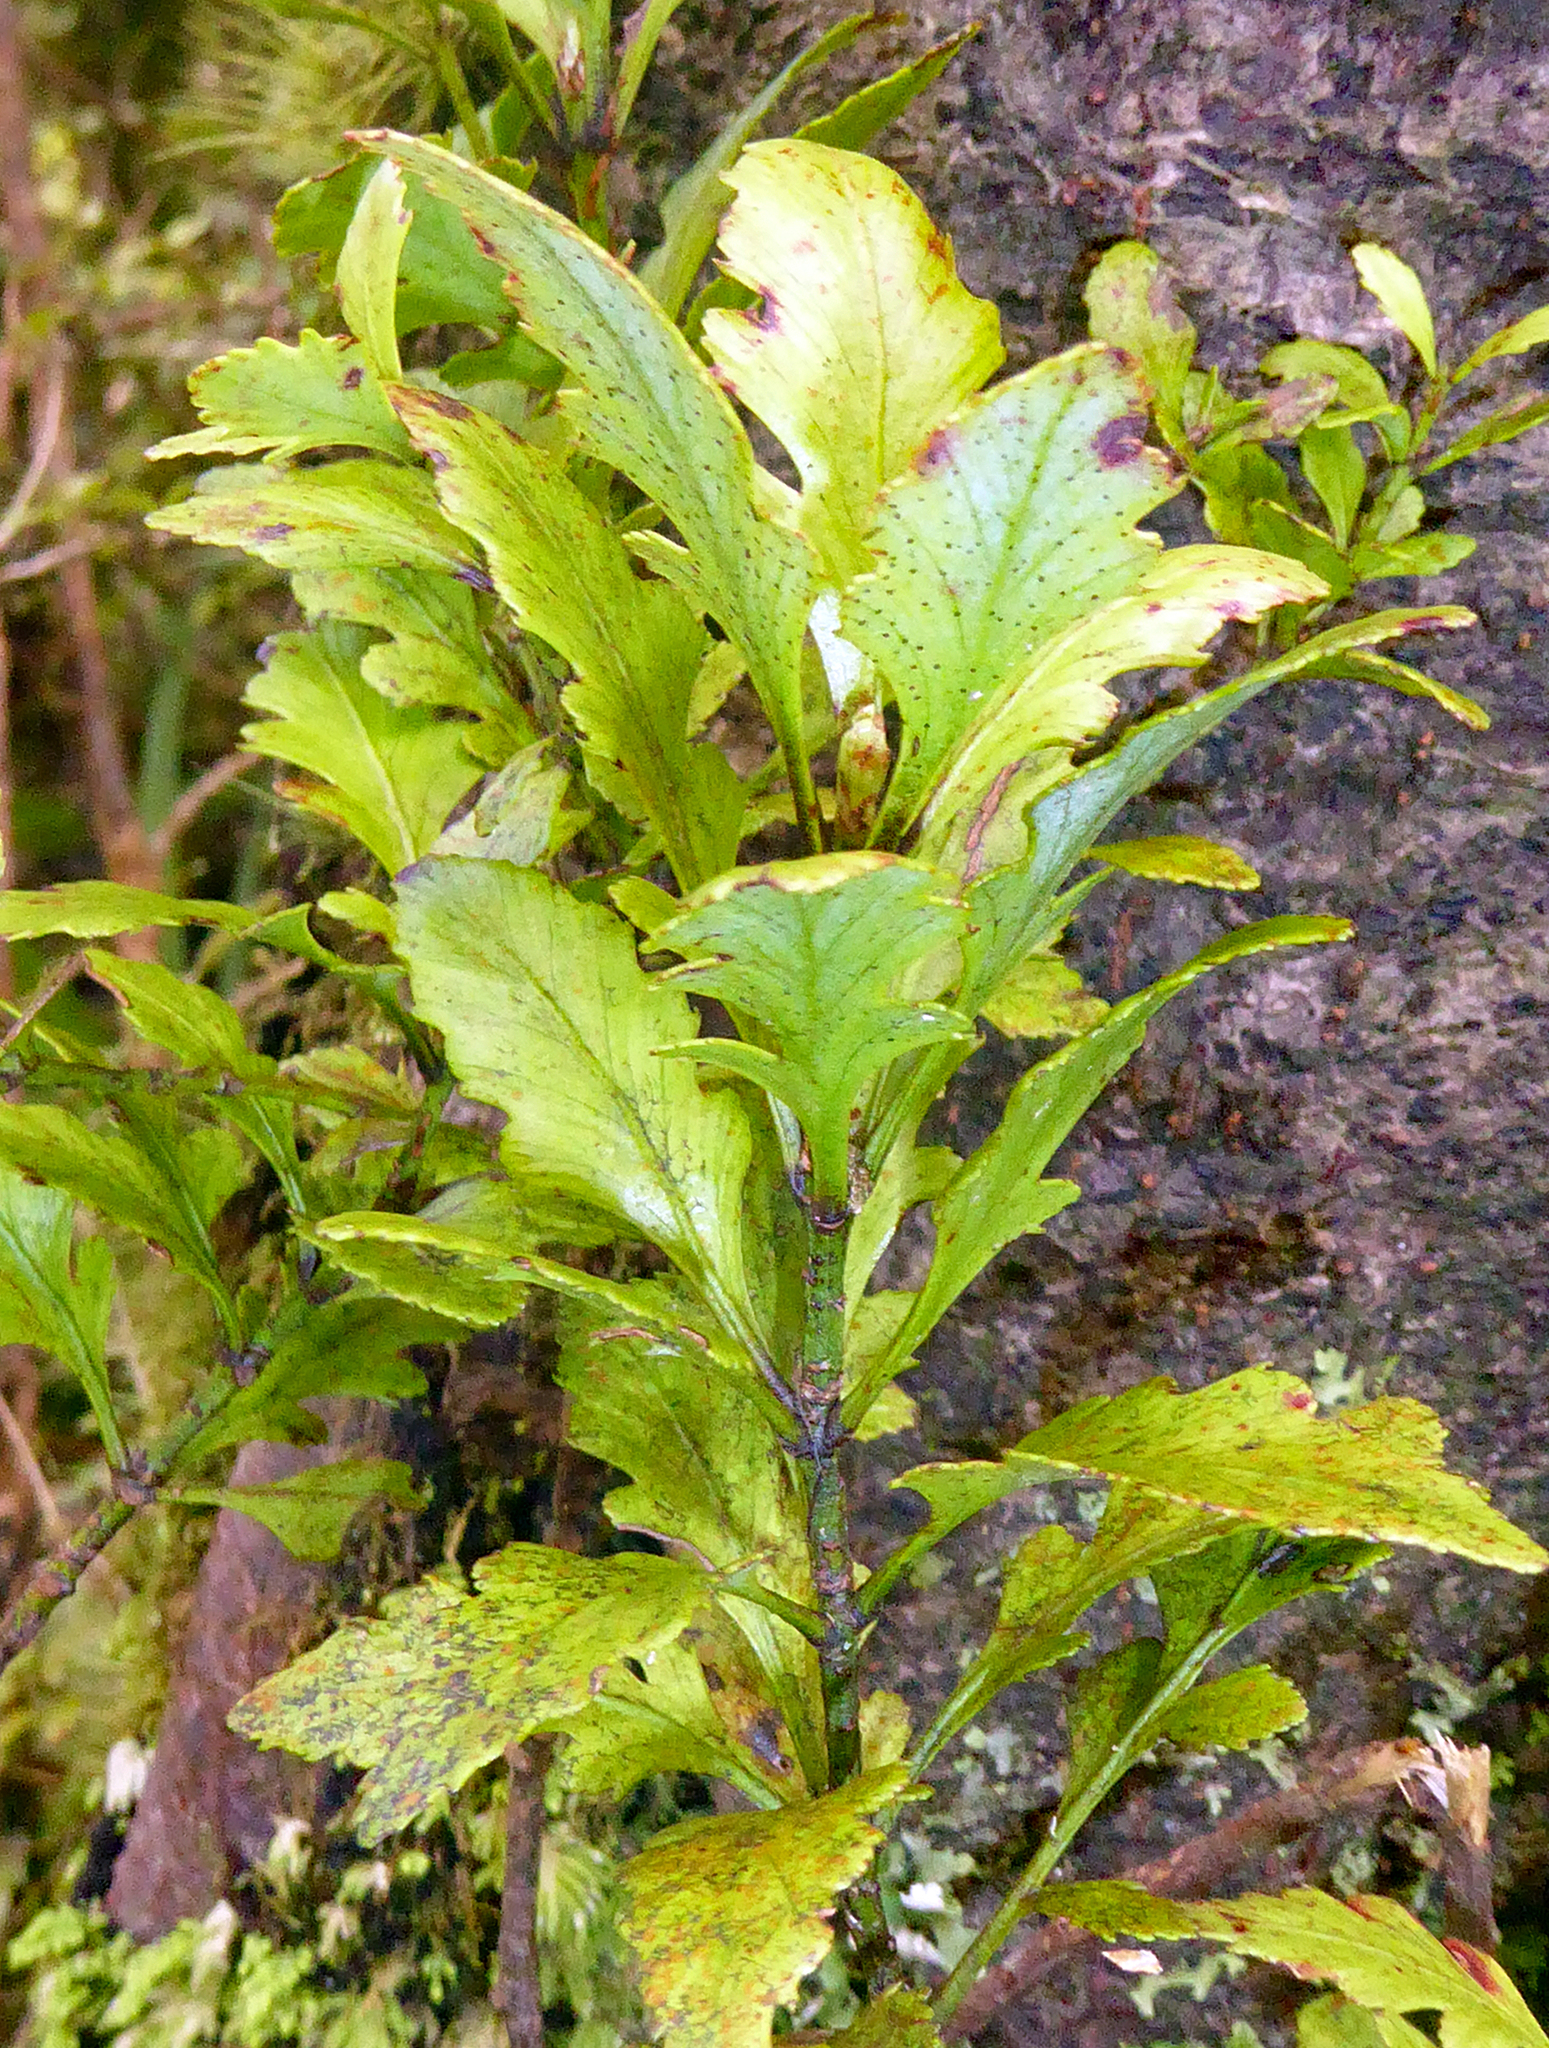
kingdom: Plantae
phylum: Tracheophyta
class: Pinopsida
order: Pinales
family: Phyllocladaceae
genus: Phyllocladus
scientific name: Phyllocladus trichomanoides
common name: Celery pine
